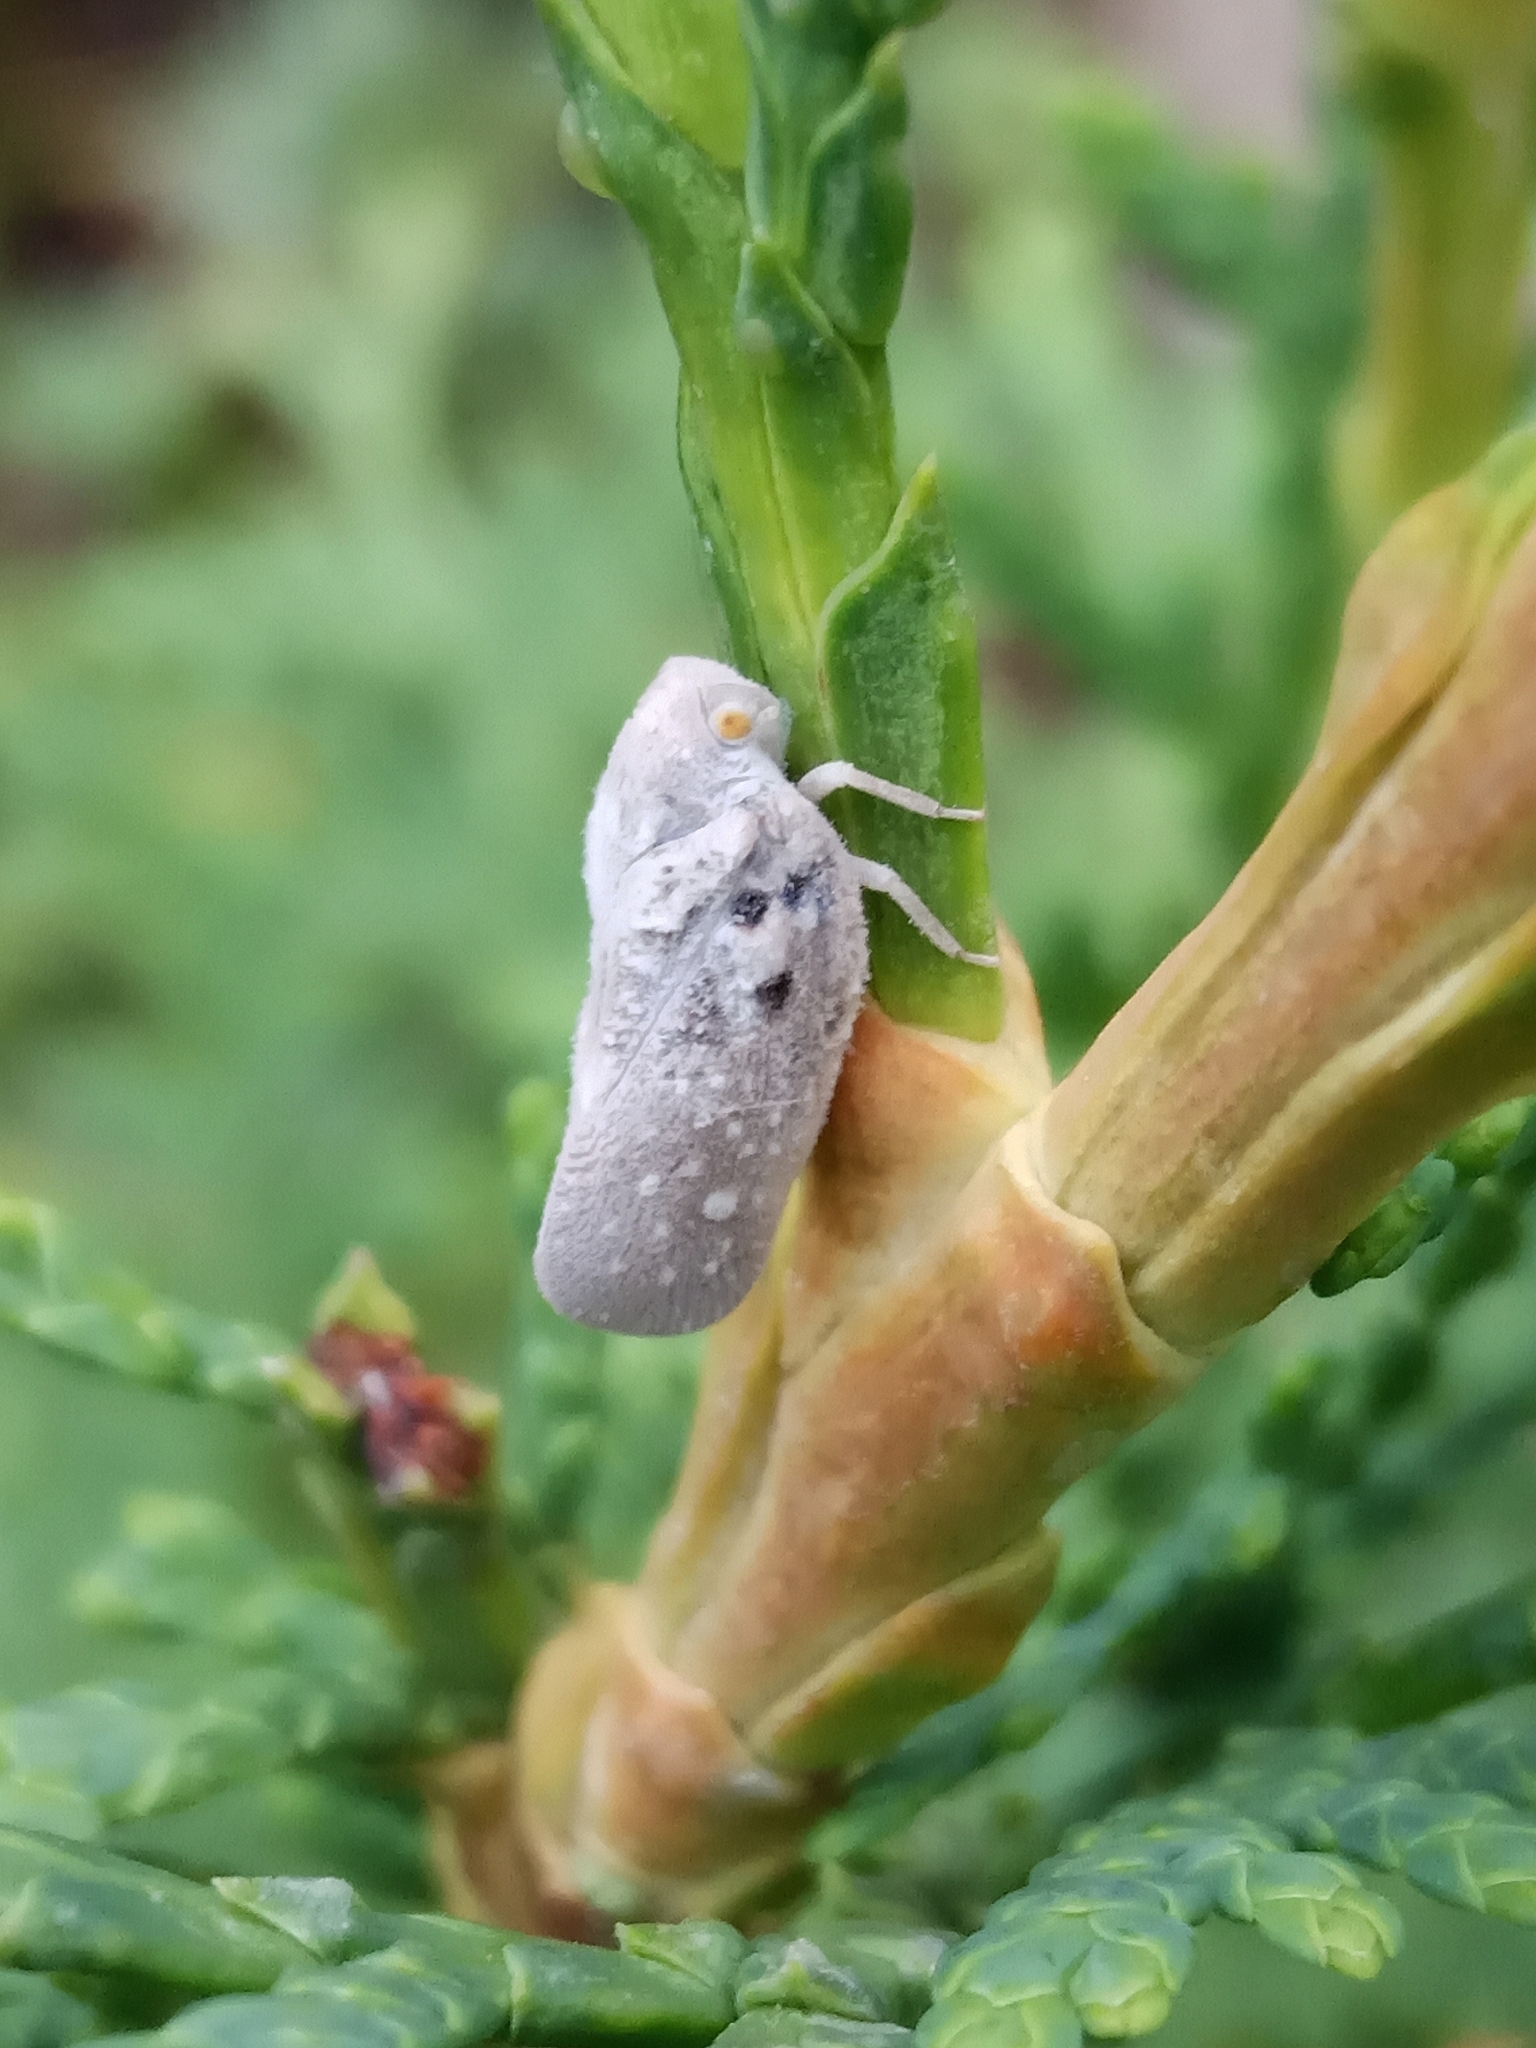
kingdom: Animalia
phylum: Arthropoda
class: Insecta
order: Hemiptera
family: Flatidae
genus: Metcalfa
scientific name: Metcalfa pruinosa
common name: Citrus flatid planthopper
